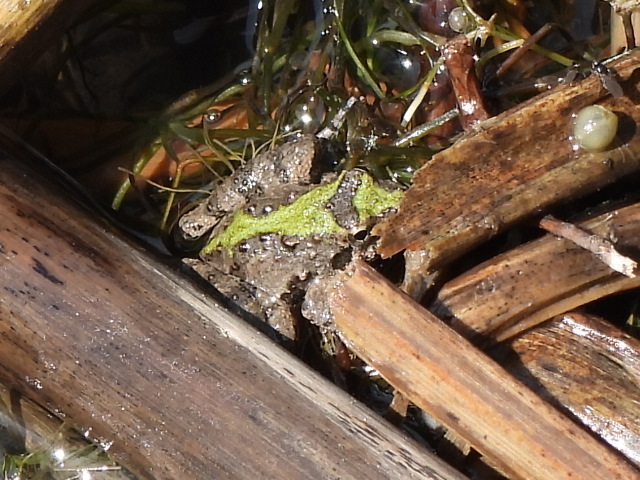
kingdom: Animalia
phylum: Chordata
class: Amphibia
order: Anura
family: Hylidae
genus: Acris
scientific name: Acris blanchardi
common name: Blanchard's cricket frog
